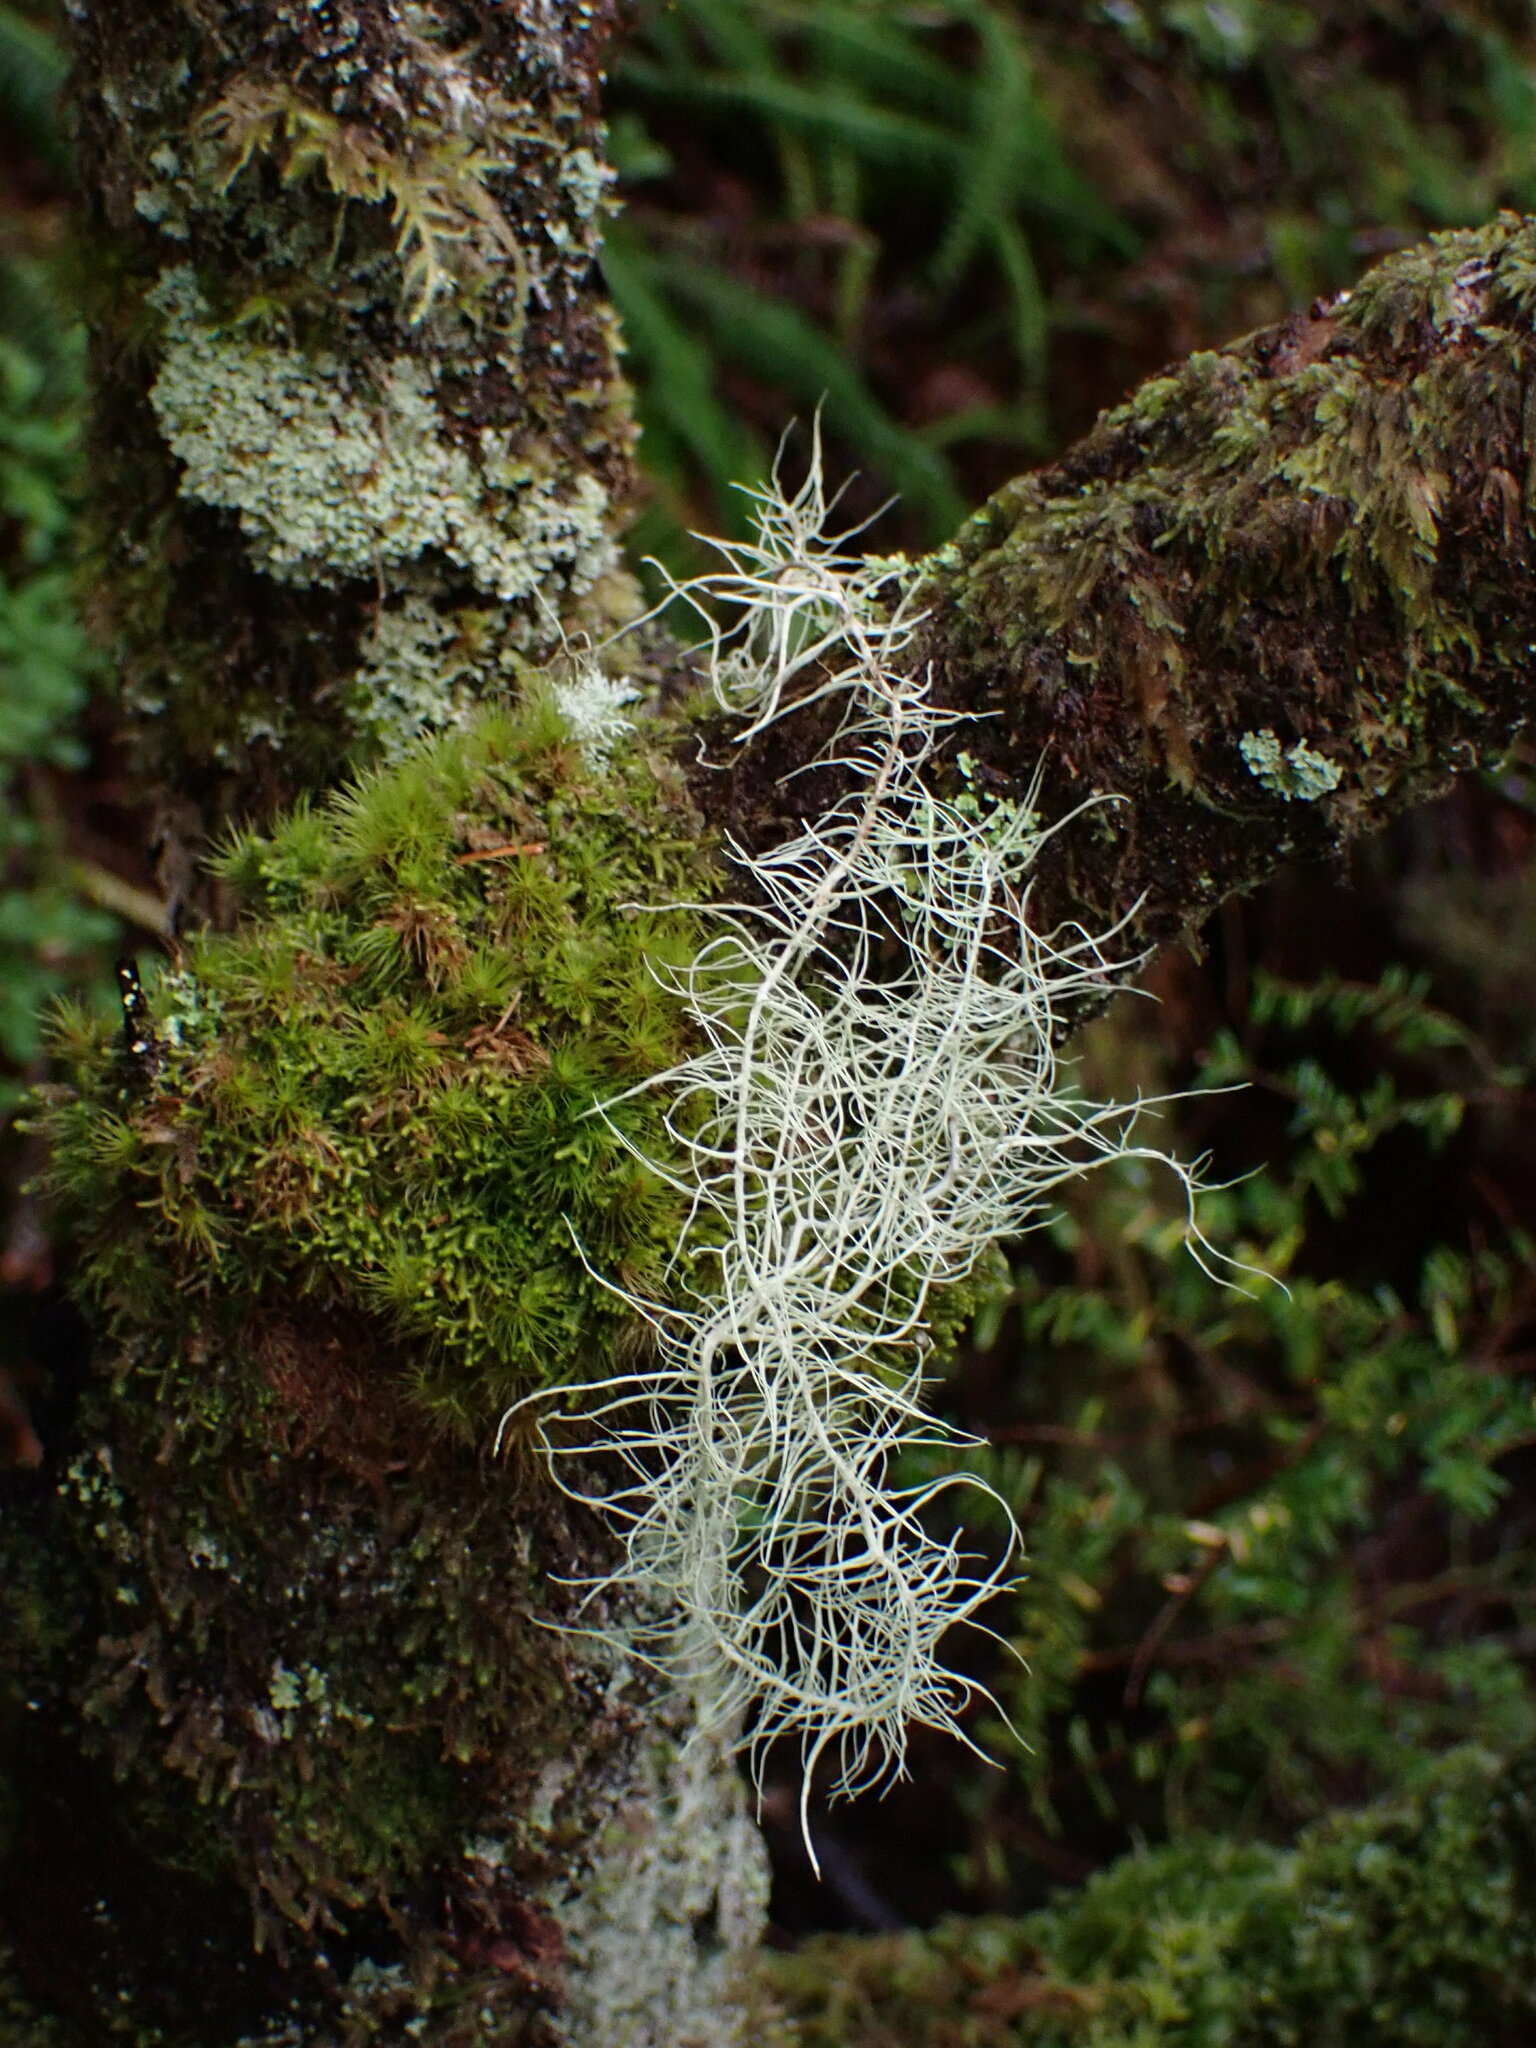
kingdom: Fungi
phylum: Ascomycota
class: Lecanoromycetes
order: Lecanorales
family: Parmeliaceae
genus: Dolichousnea
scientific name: Dolichousnea longissima
